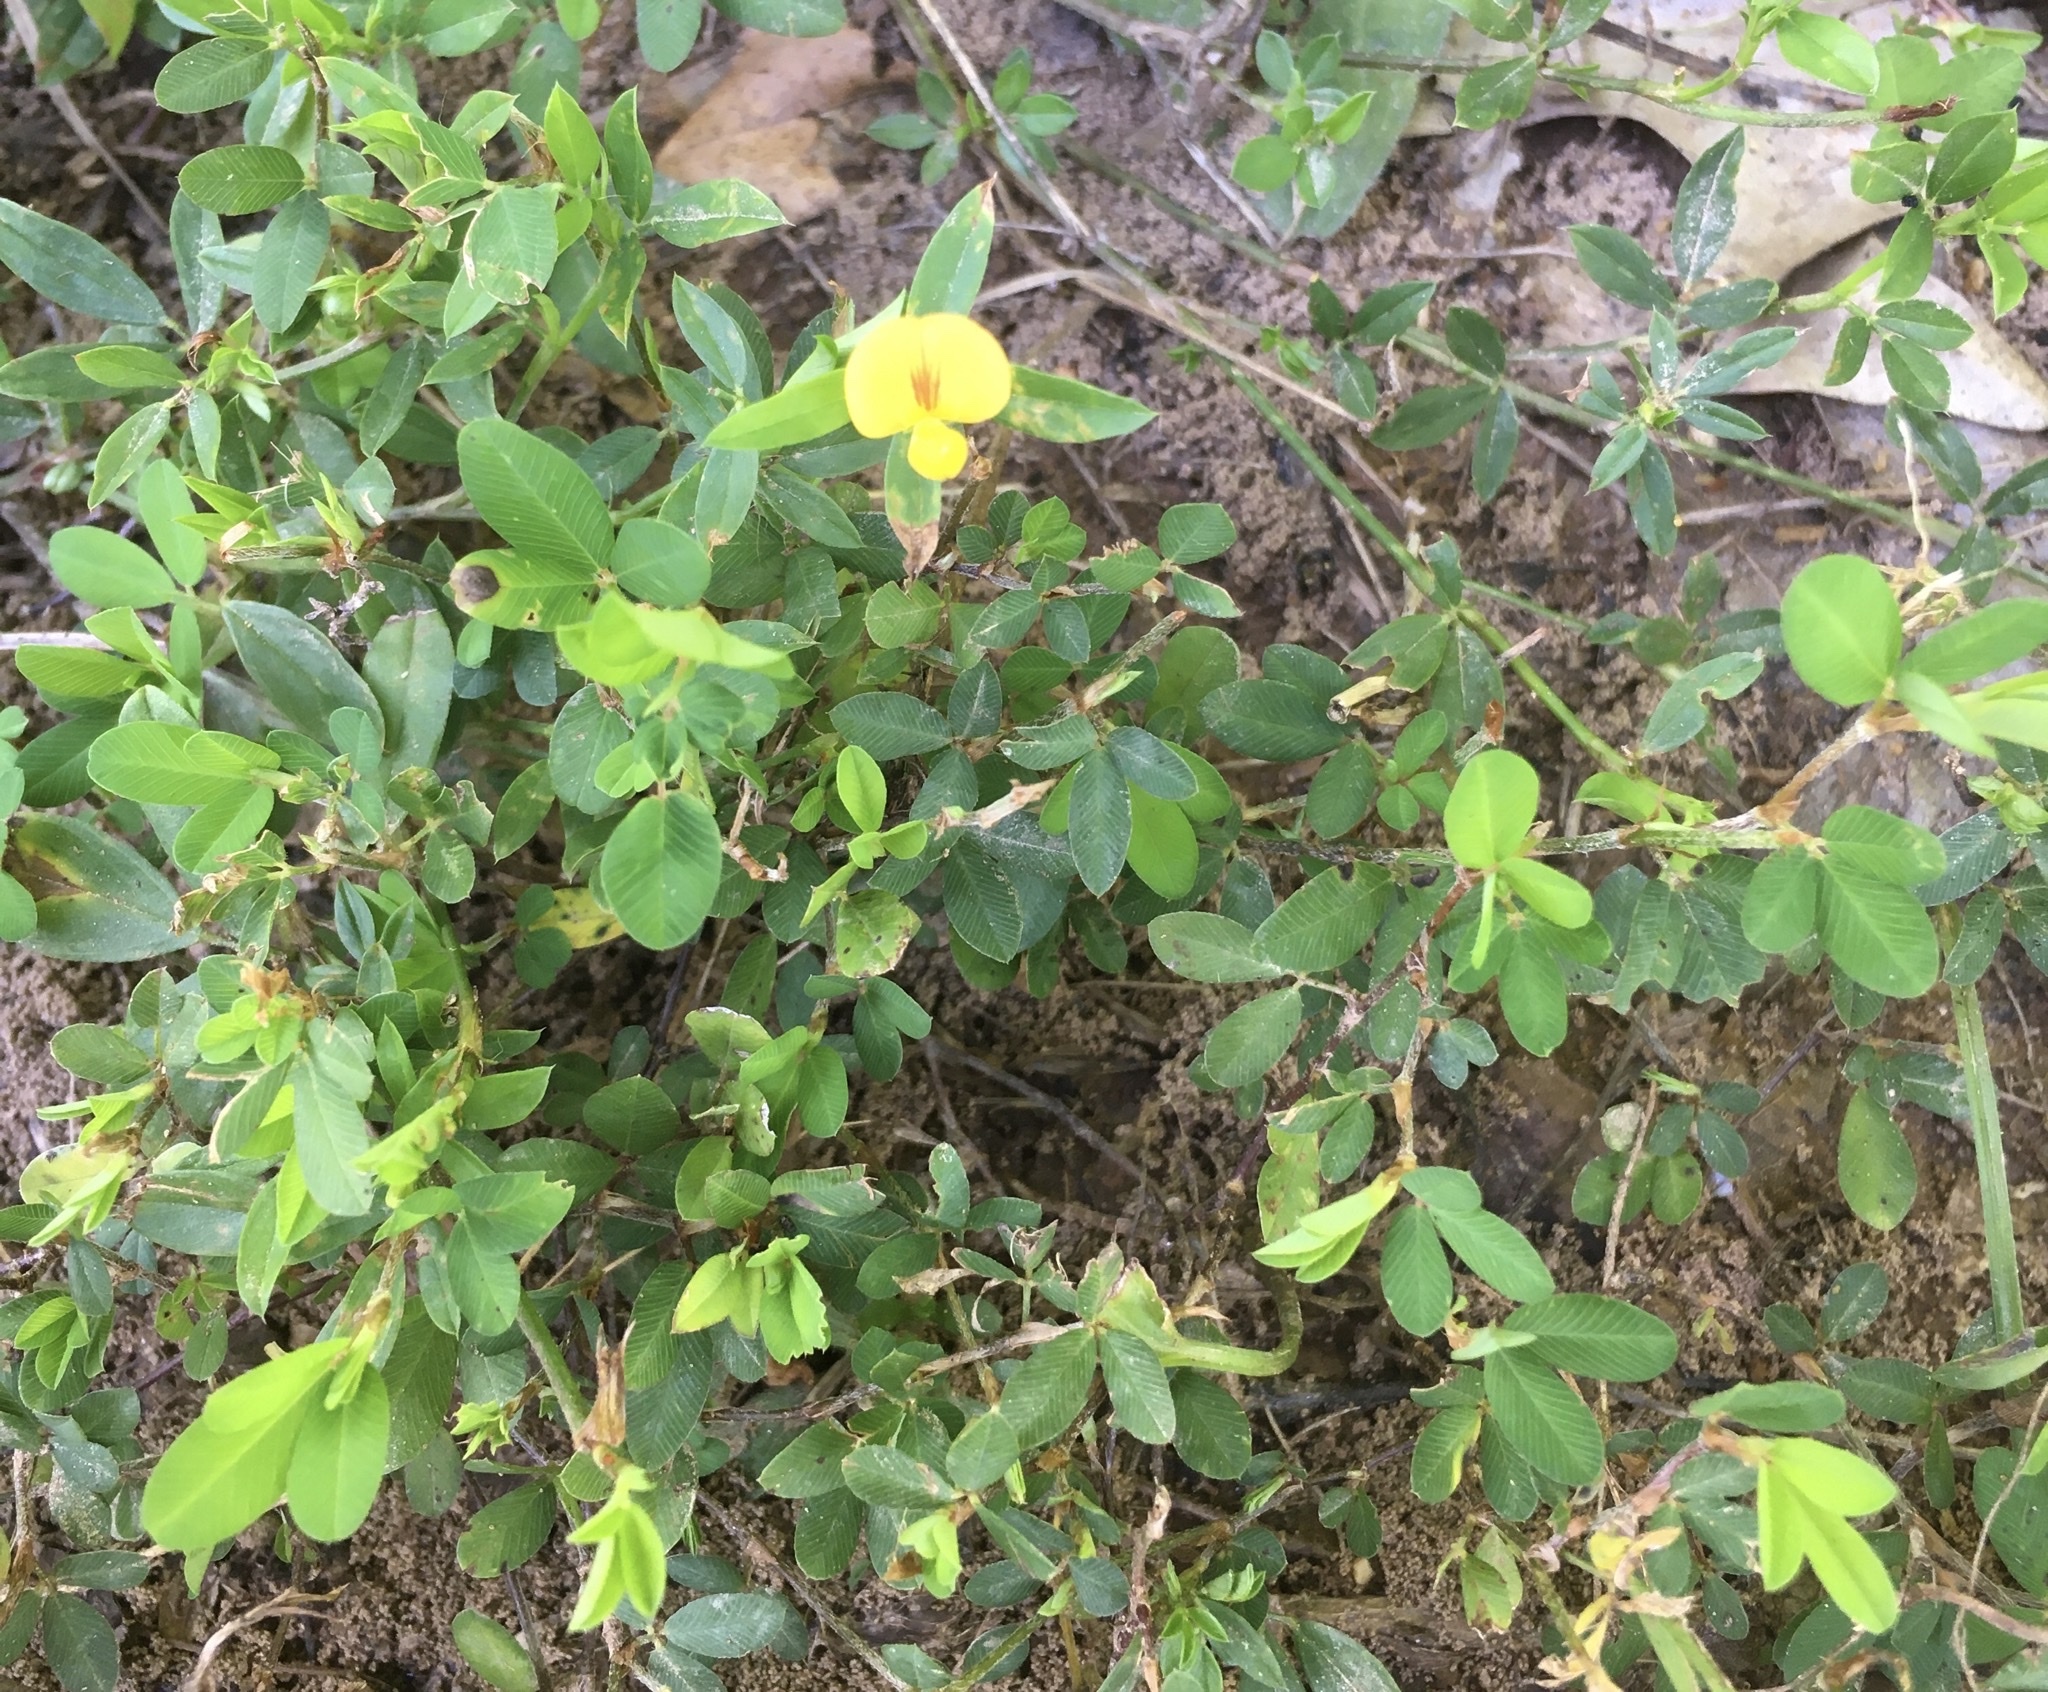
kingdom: Plantae
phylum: Tracheophyta
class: Magnoliopsida
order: Fabales
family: Fabaceae
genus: Stylosanthes
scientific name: Stylosanthes biflora
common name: Two-flower pencil-flower
